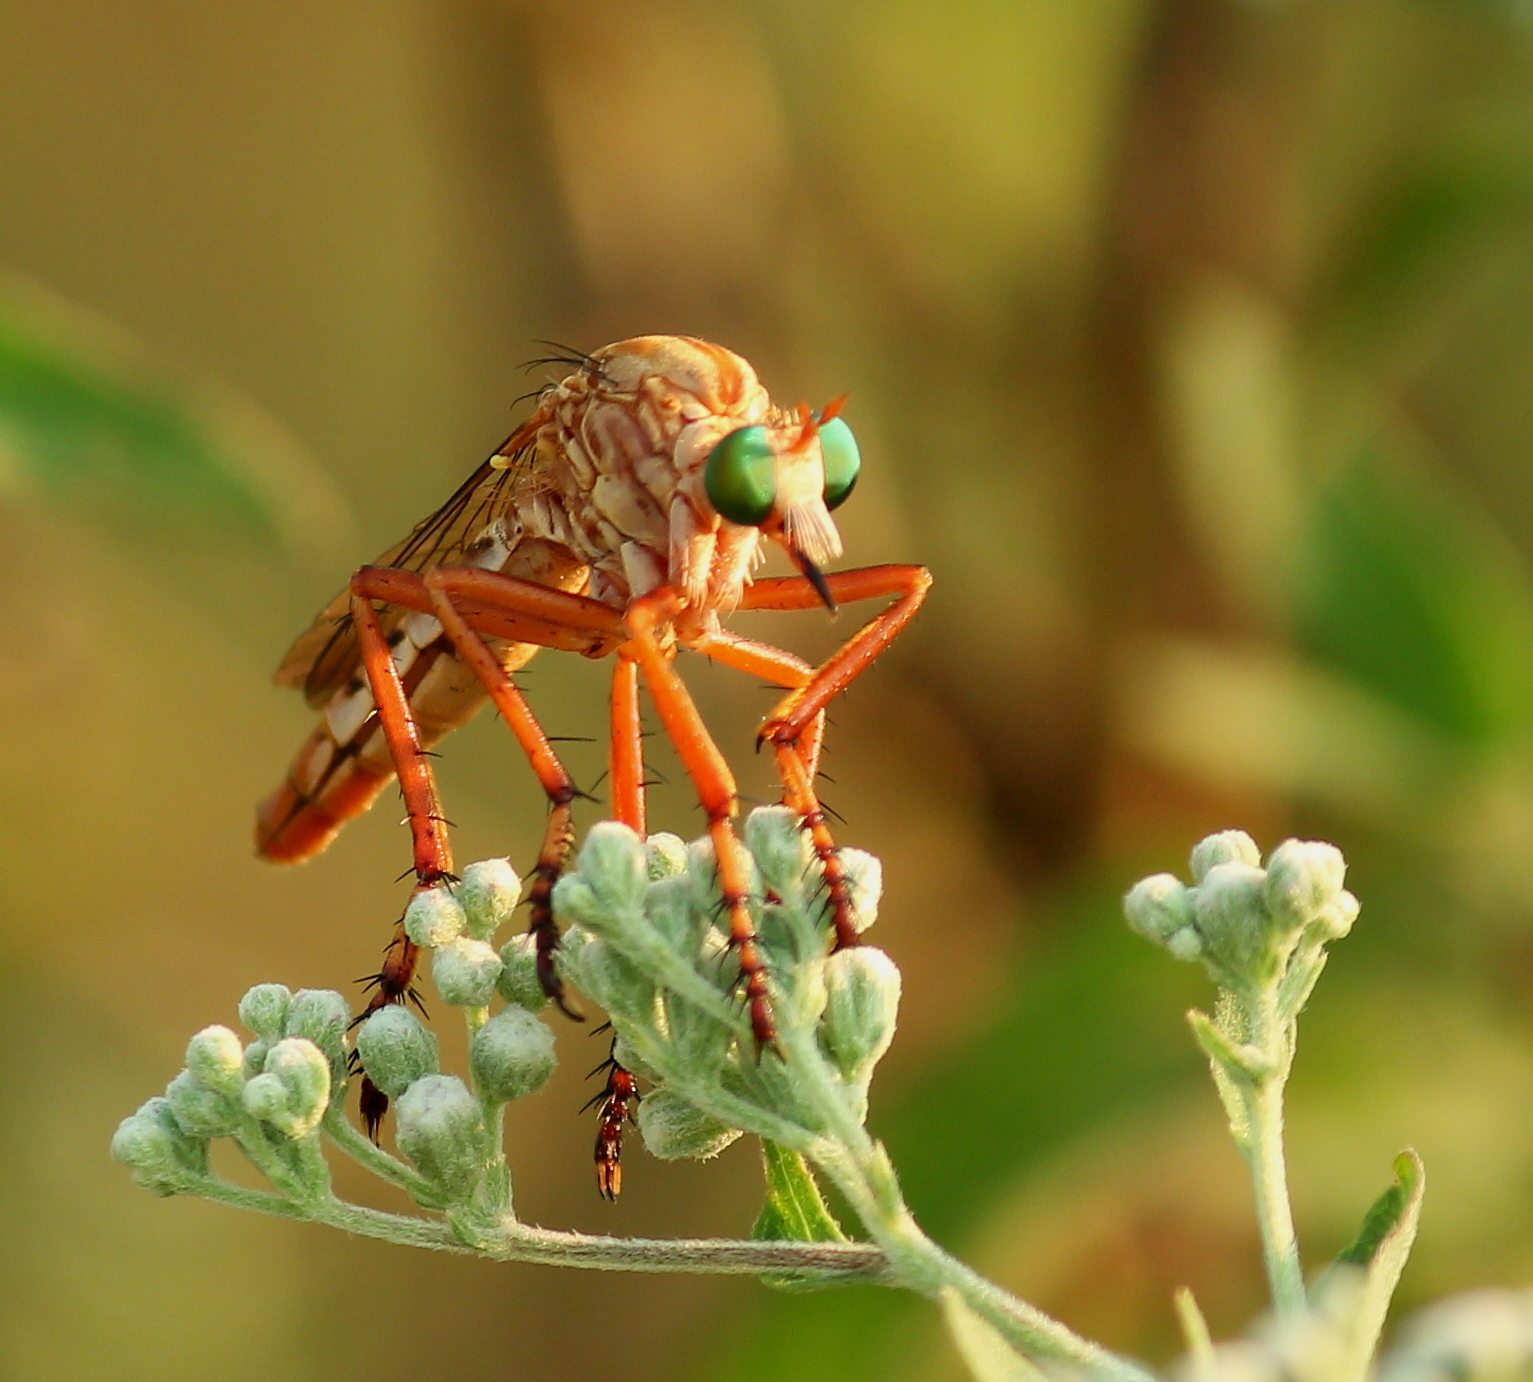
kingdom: Animalia
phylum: Arthropoda
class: Insecta
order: Diptera
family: Asilidae
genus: Diogmites
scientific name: Diogmites angustipennis
